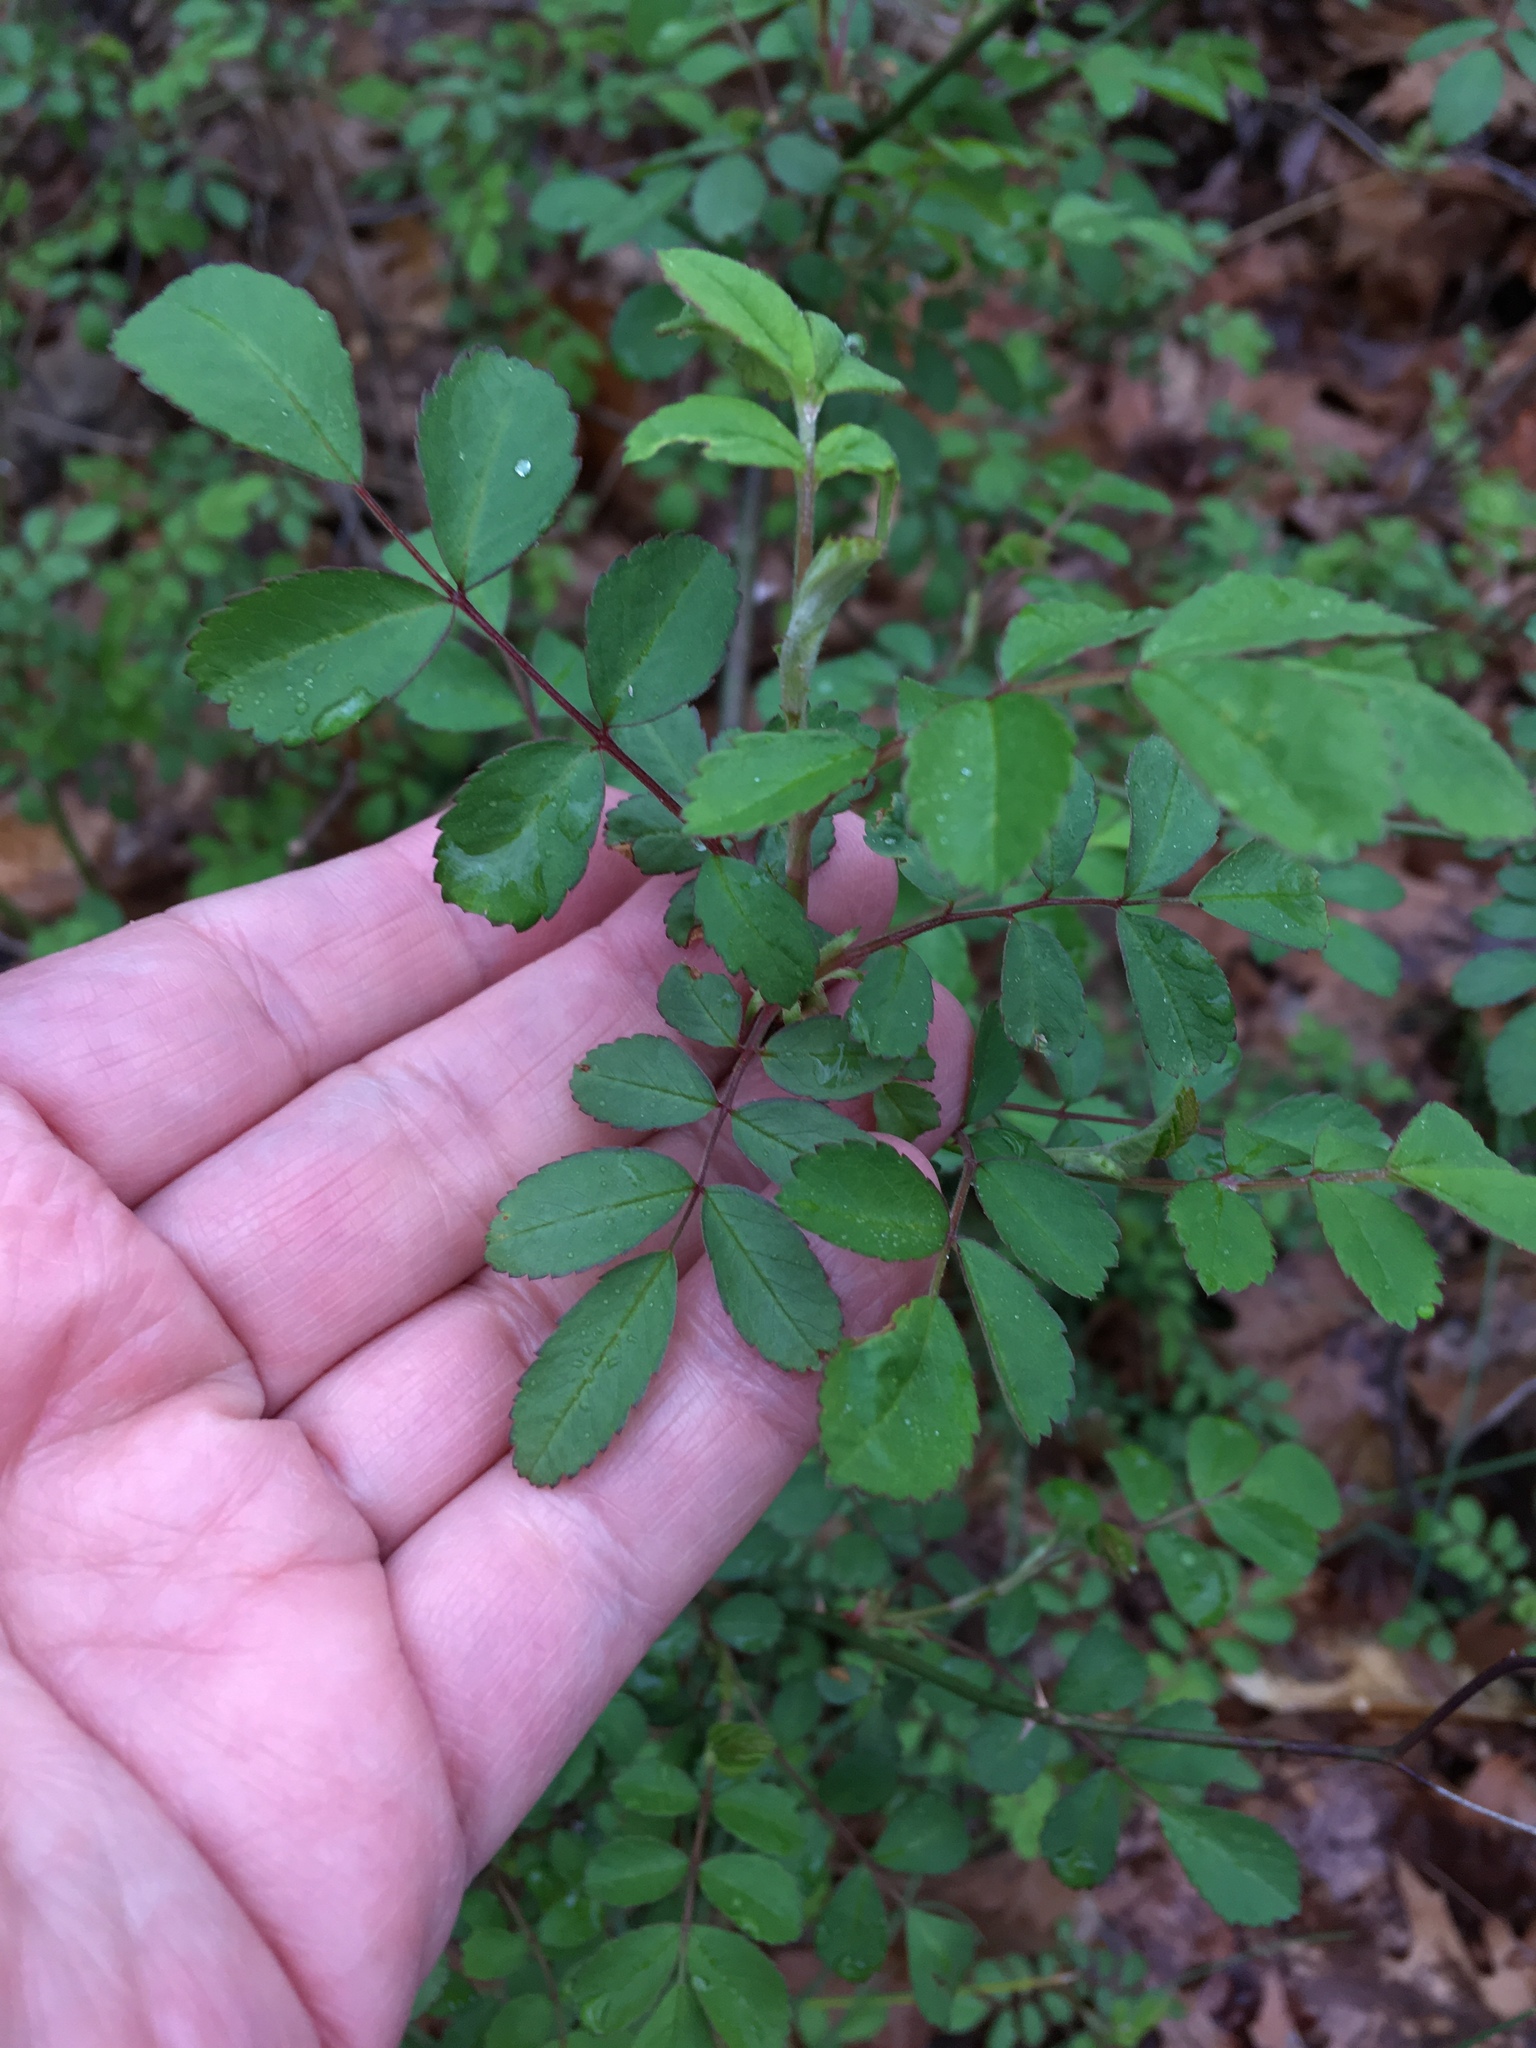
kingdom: Plantae
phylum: Tracheophyta
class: Magnoliopsida
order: Rosales
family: Rosaceae
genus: Rosa
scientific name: Rosa multiflora
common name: Multiflora rose
